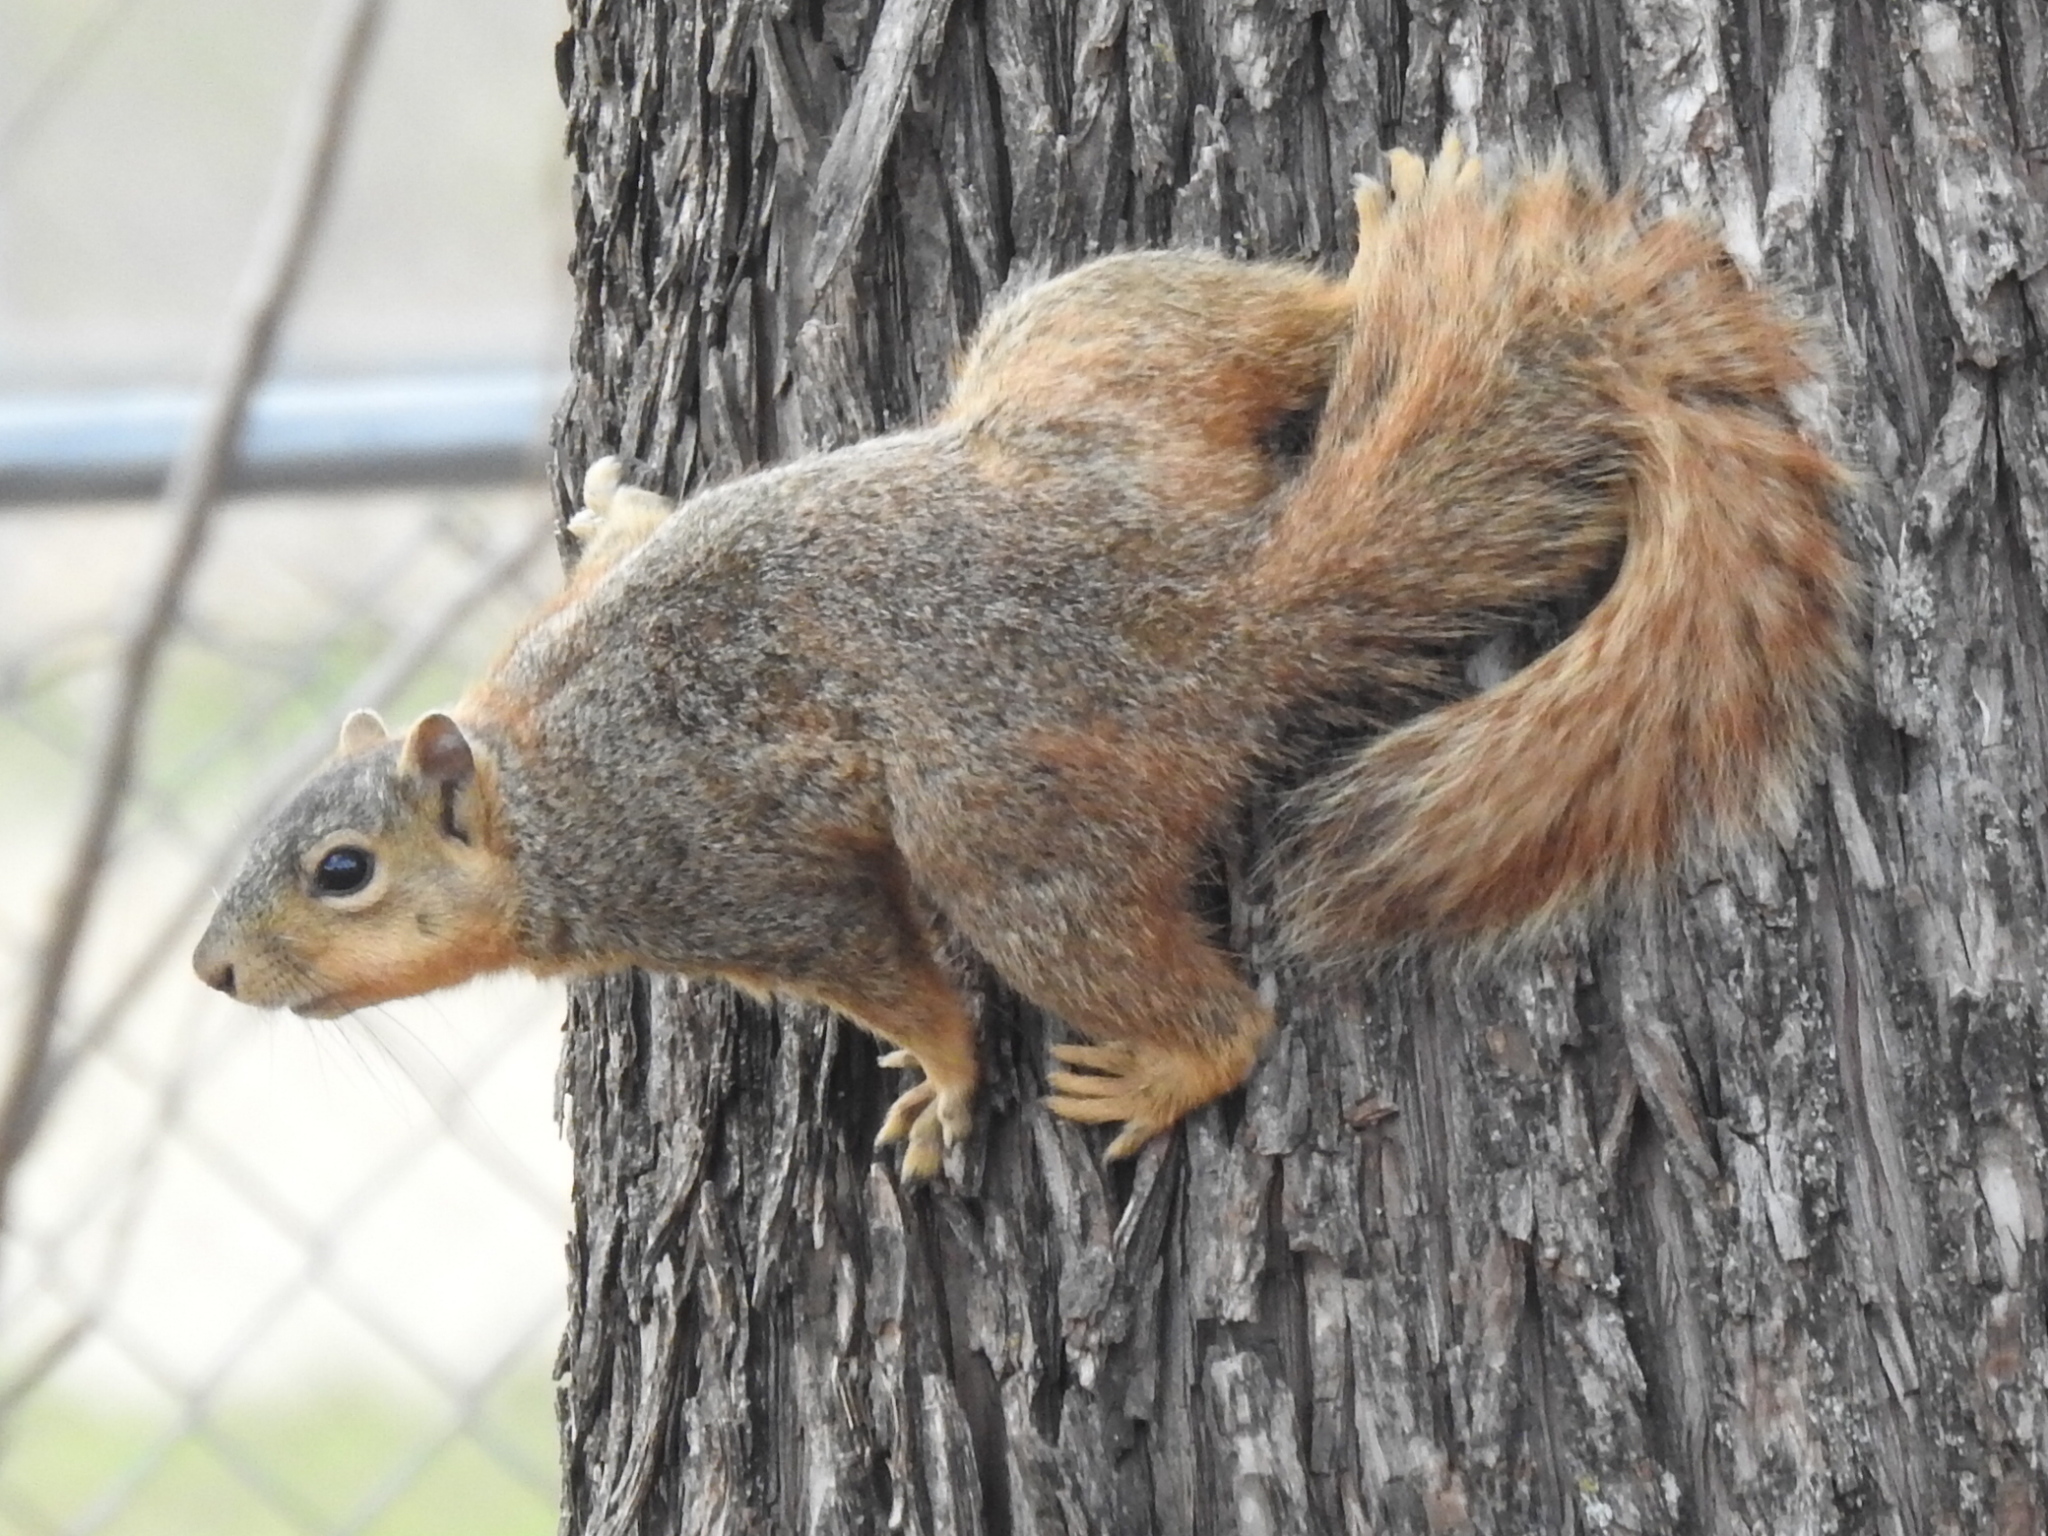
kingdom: Animalia
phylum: Chordata
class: Mammalia
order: Rodentia
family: Sciuridae
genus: Sciurus
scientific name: Sciurus niger
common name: Fox squirrel
